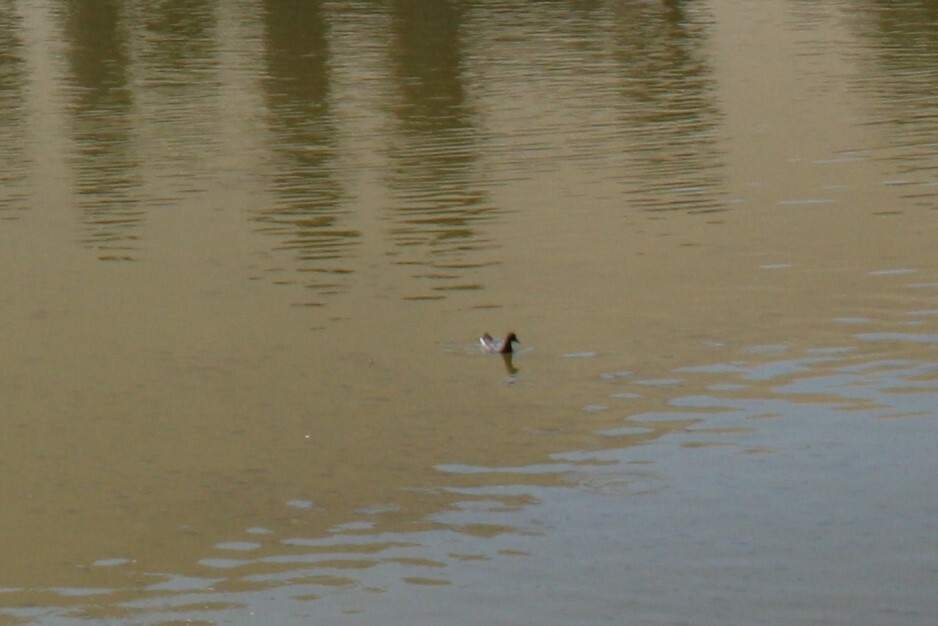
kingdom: Animalia
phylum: Chordata
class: Aves
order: Gruiformes
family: Rallidae
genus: Gallinula
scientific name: Gallinula chloropus
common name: Common moorhen
